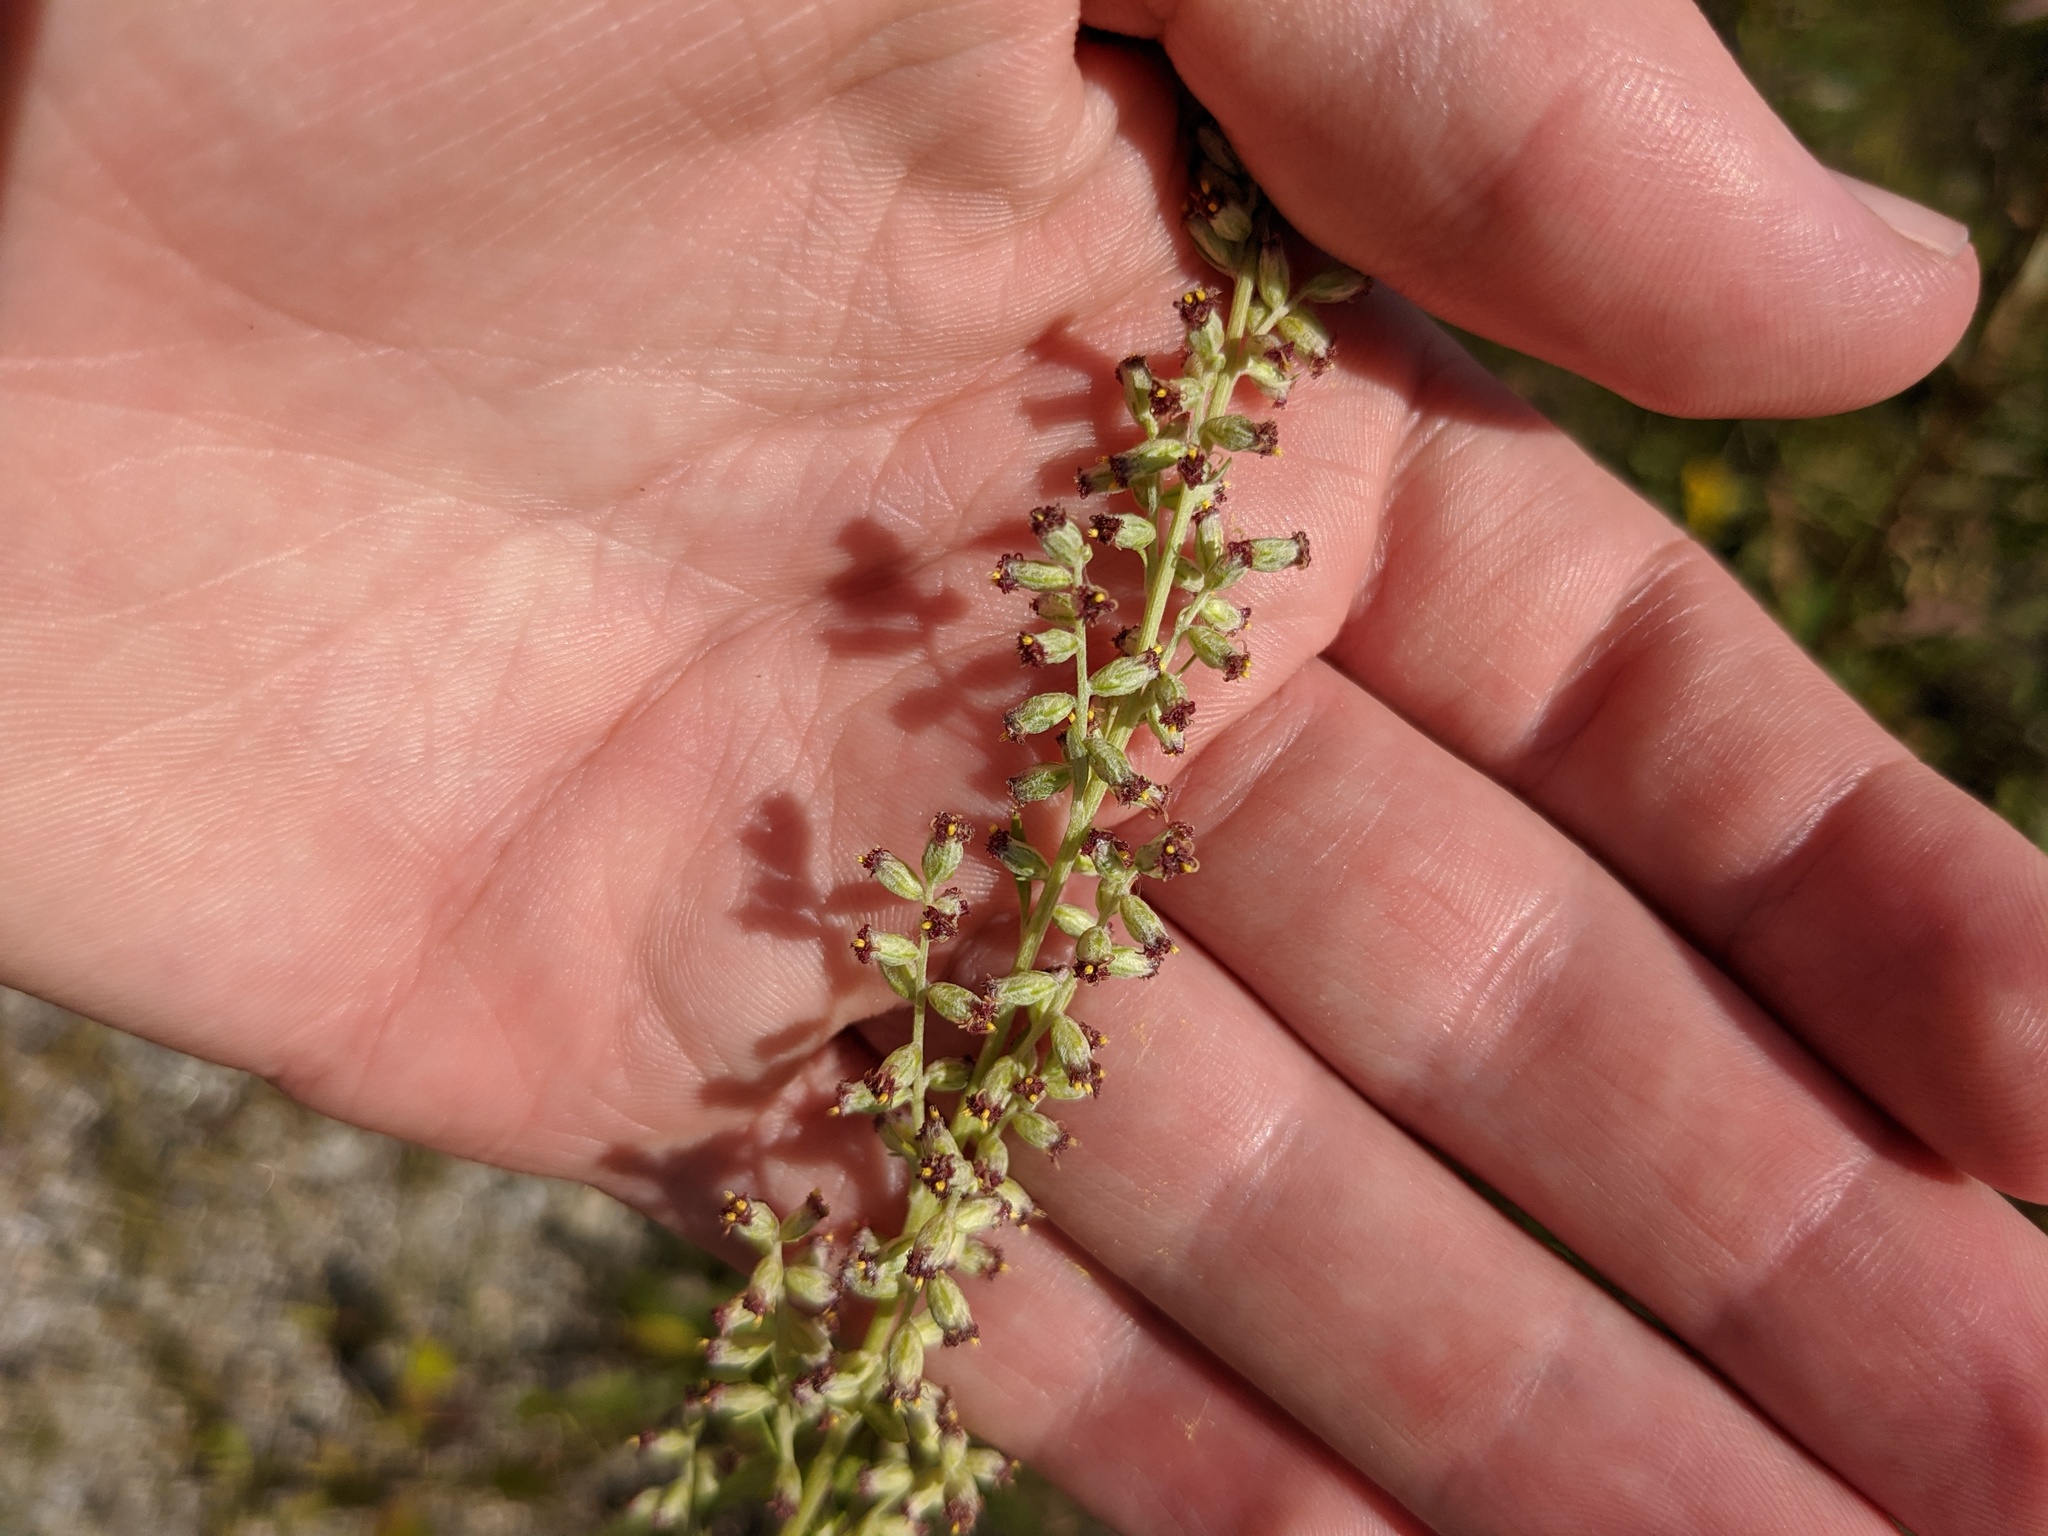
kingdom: Plantae
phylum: Tracheophyta
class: Magnoliopsida
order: Asterales
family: Asteraceae
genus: Artemisia
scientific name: Artemisia vulgaris
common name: Mugwort
